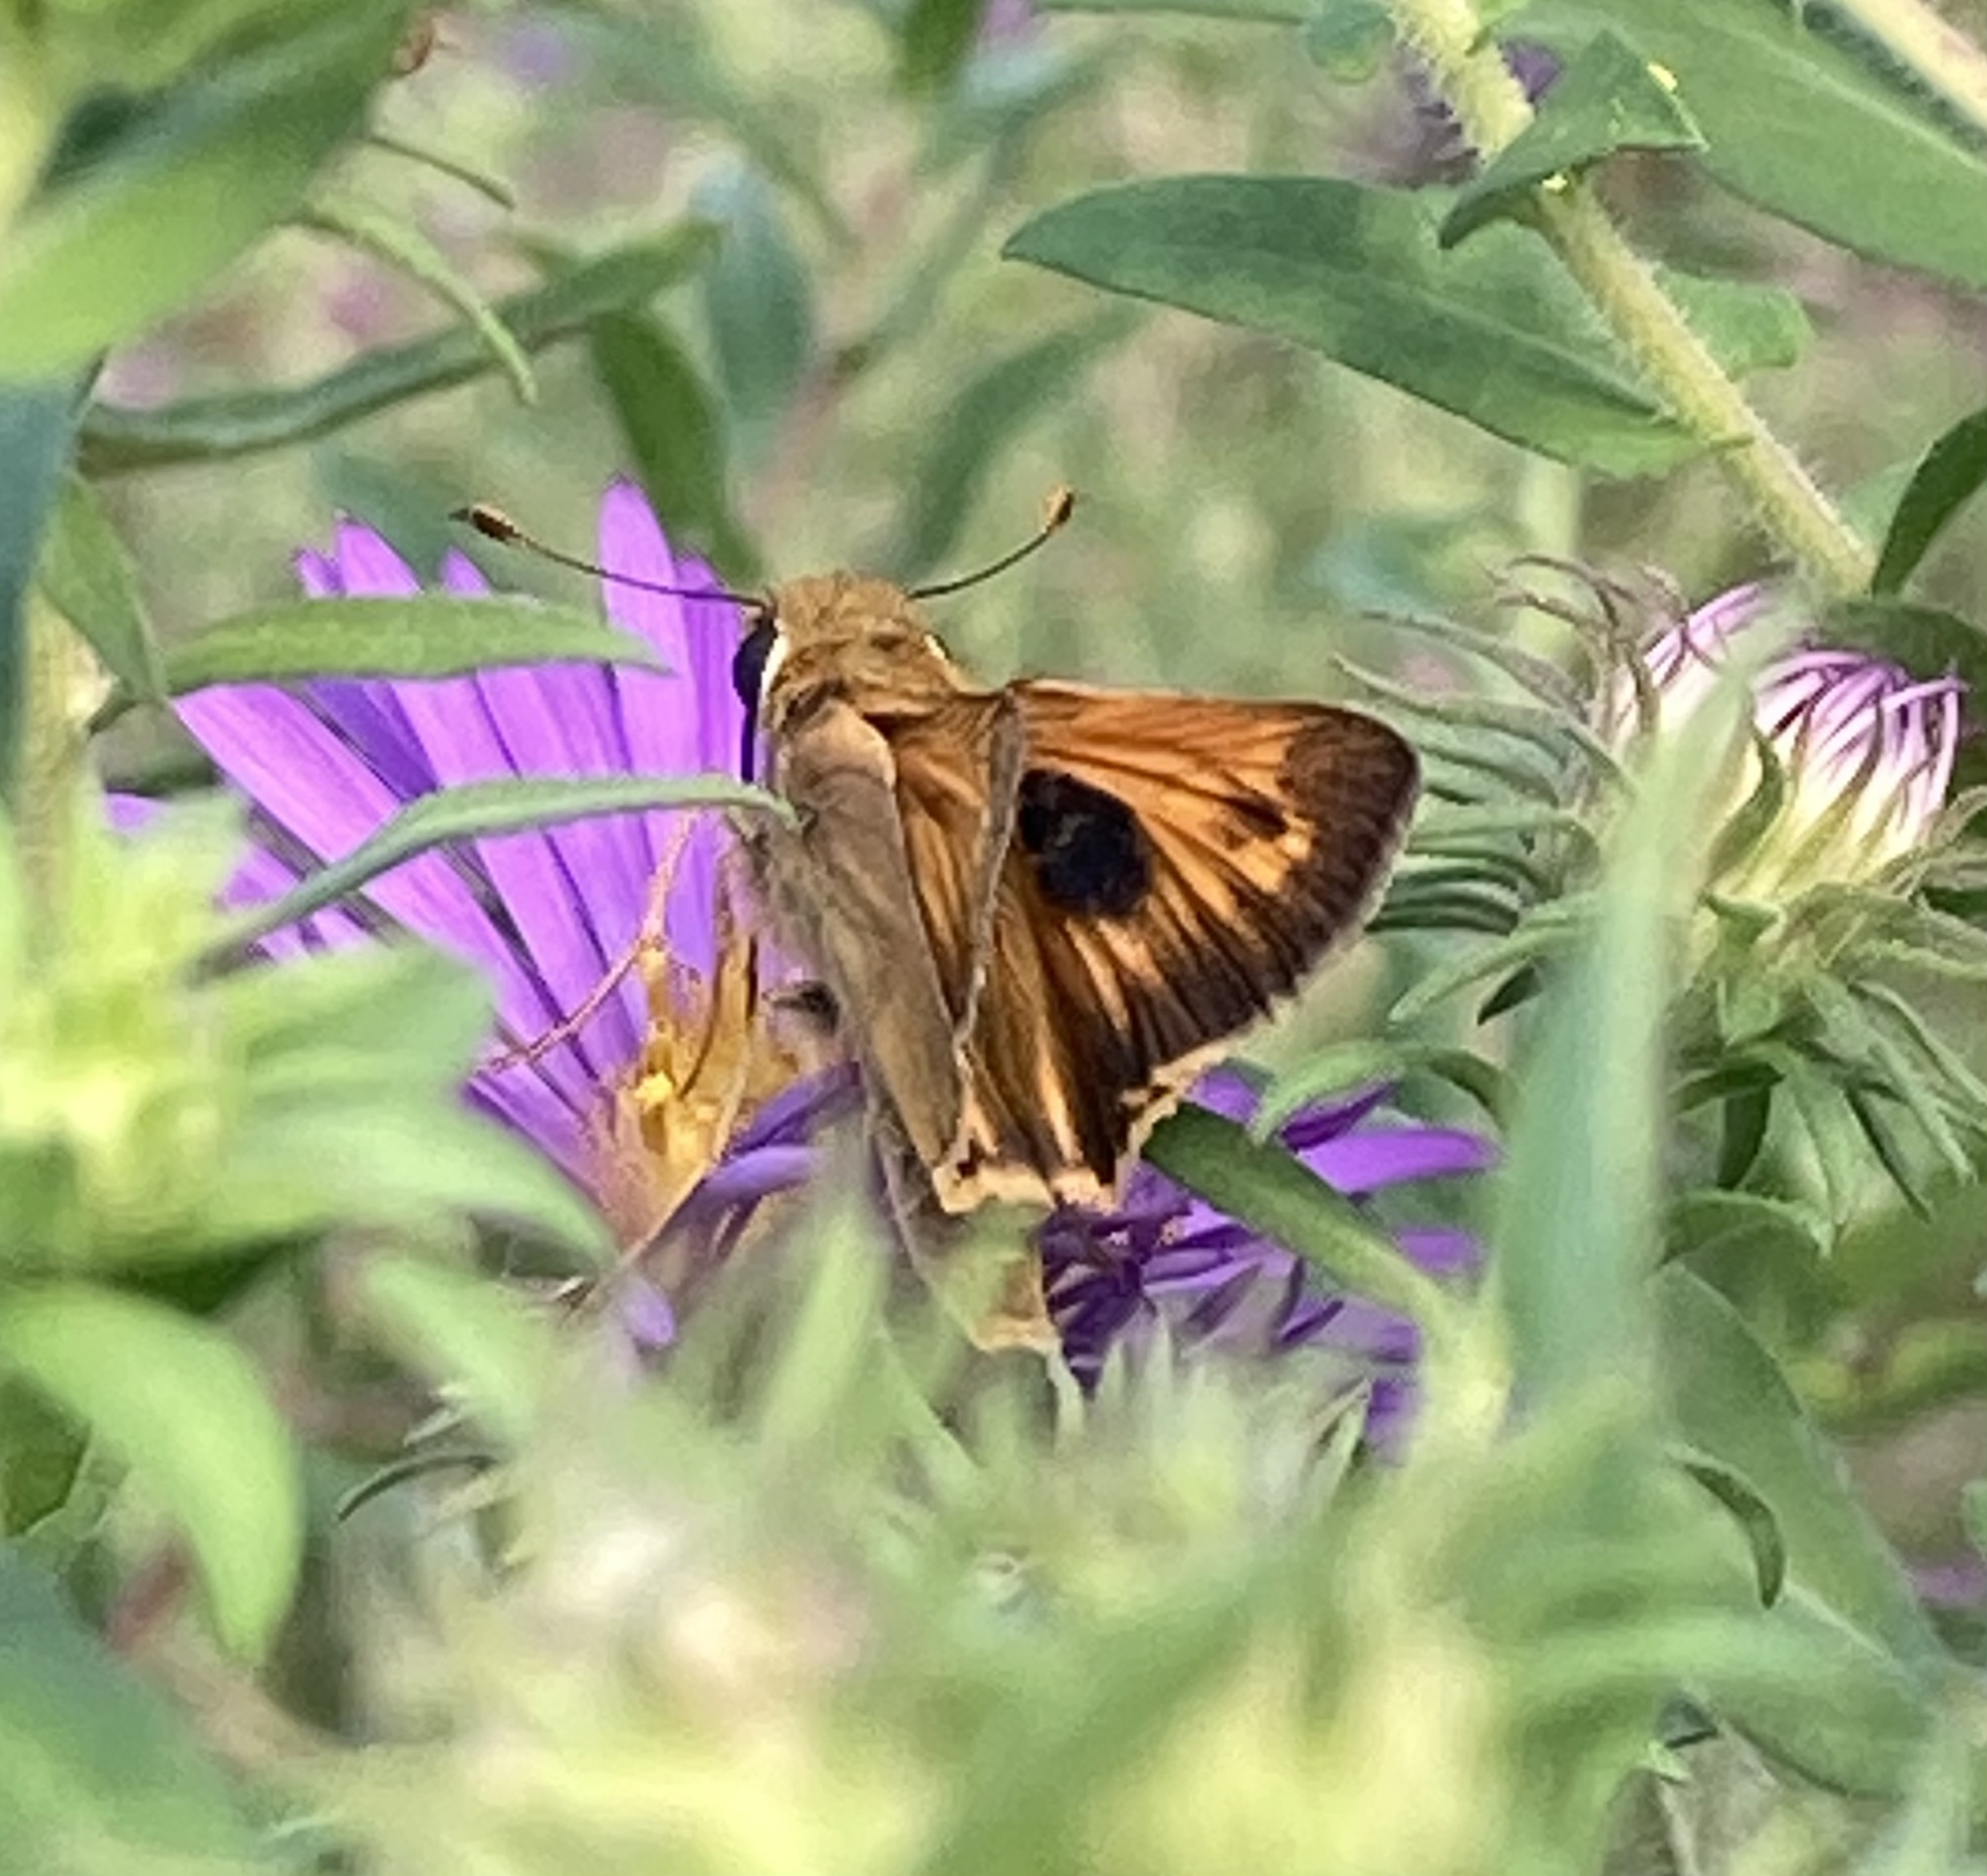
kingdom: Animalia
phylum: Arthropoda
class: Insecta
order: Lepidoptera
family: Hesperiidae
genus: Atalopedes
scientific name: Atalopedes
